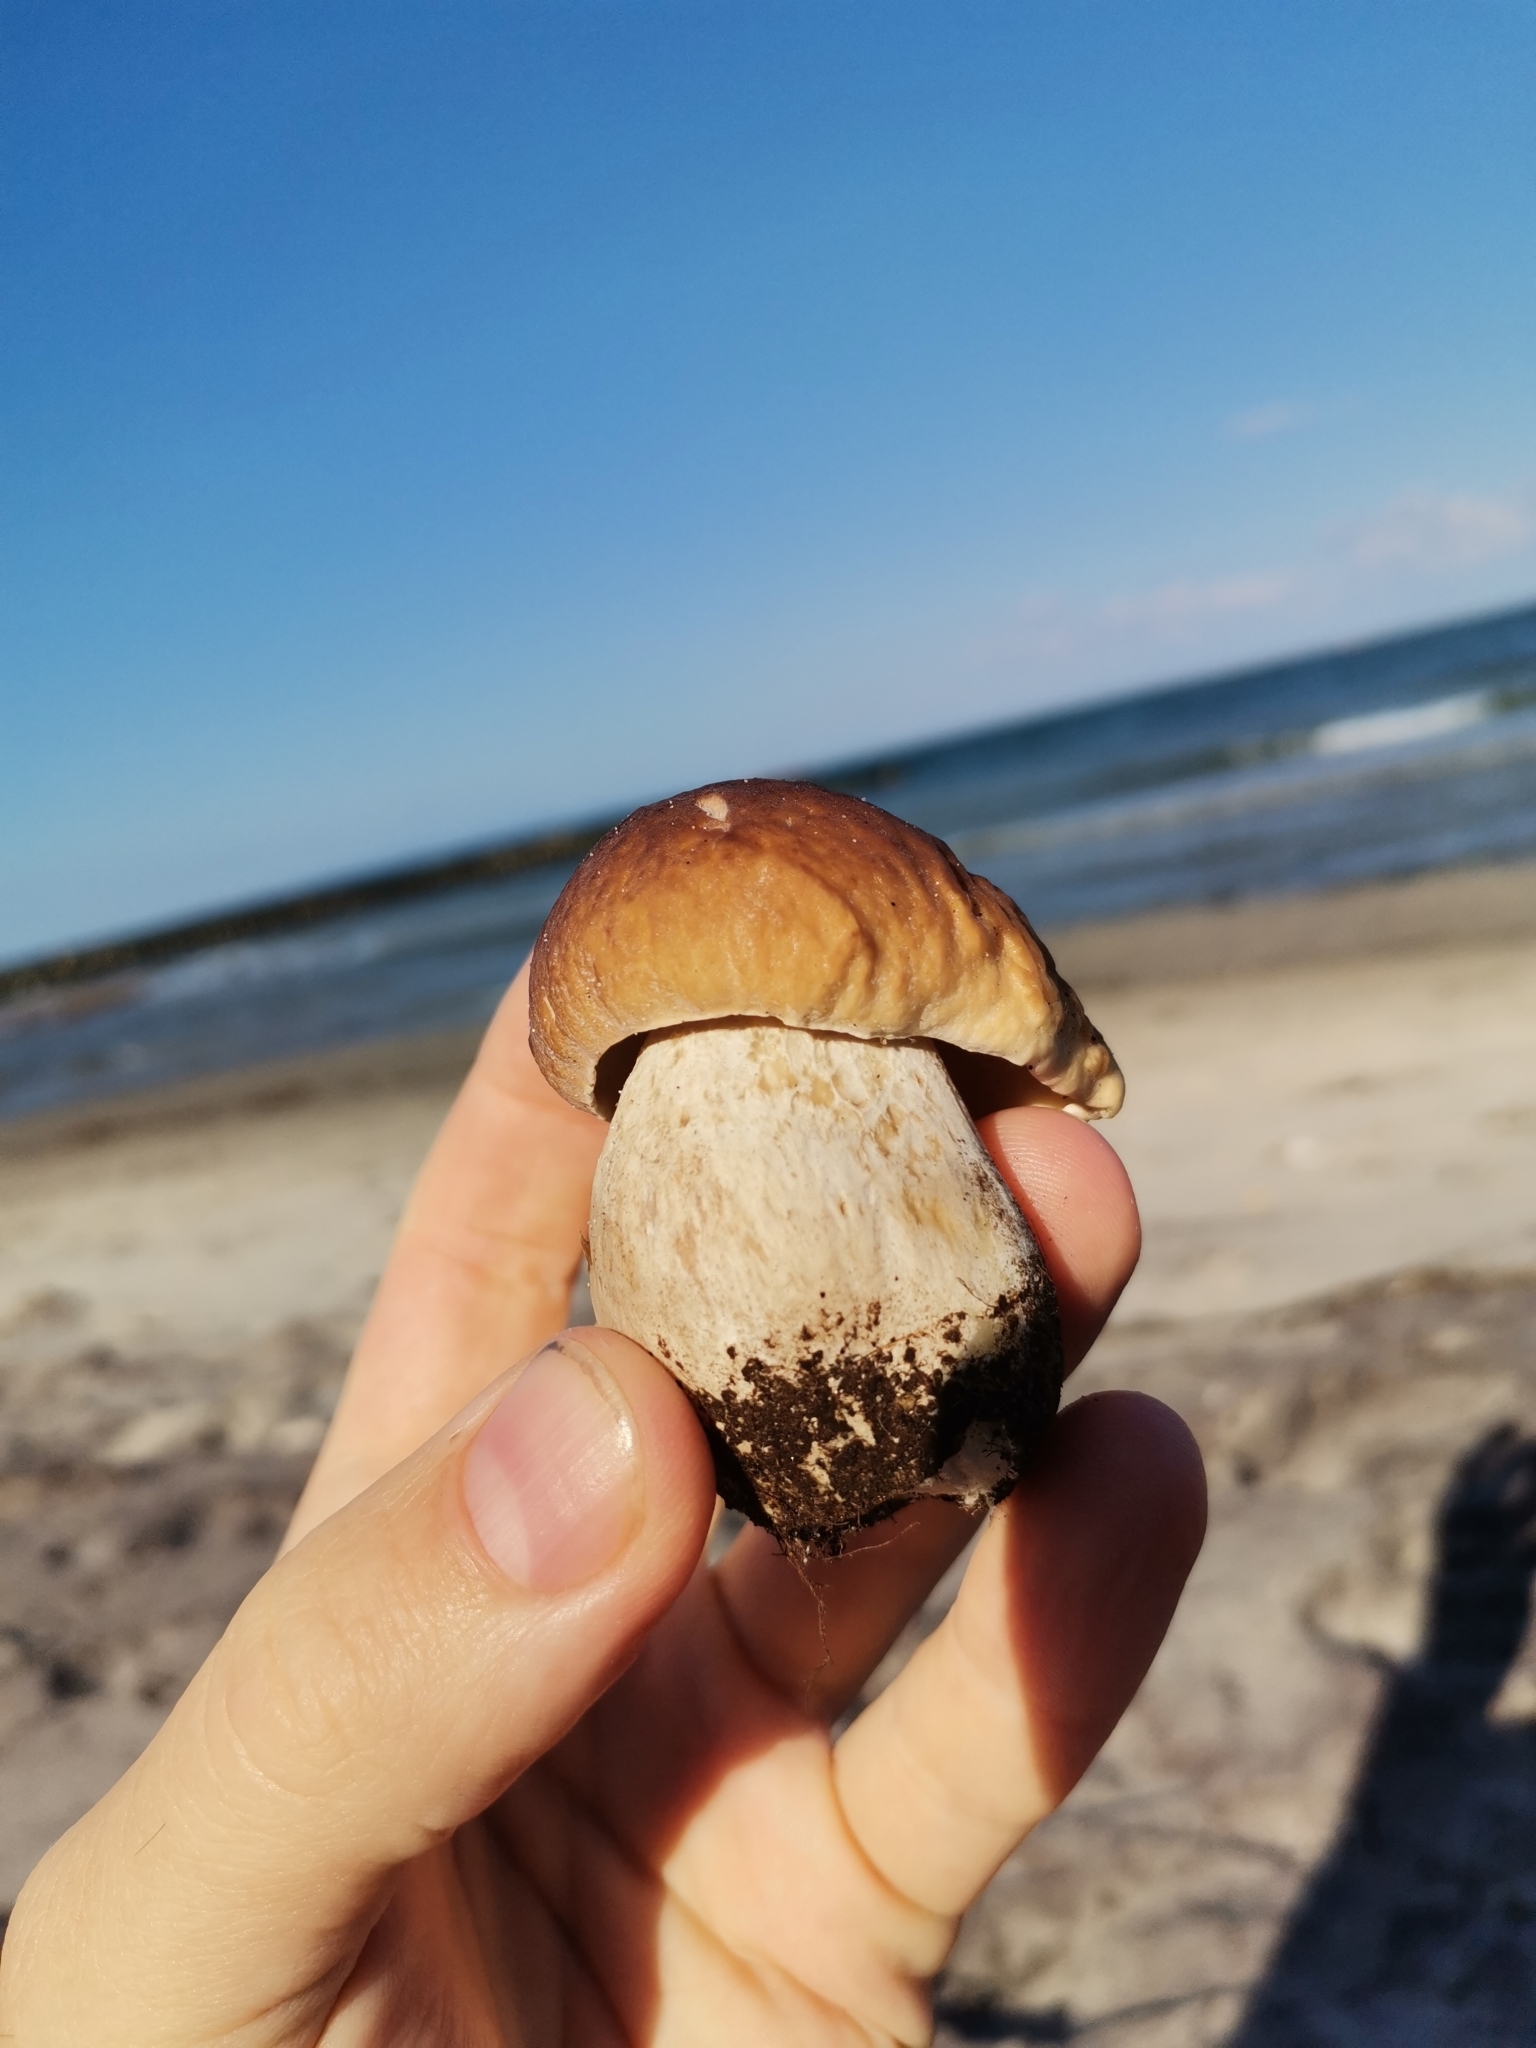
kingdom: Fungi
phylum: Basidiomycota
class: Agaricomycetes
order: Boletales
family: Boletaceae
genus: Boletus
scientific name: Boletus edulis
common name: Cep
